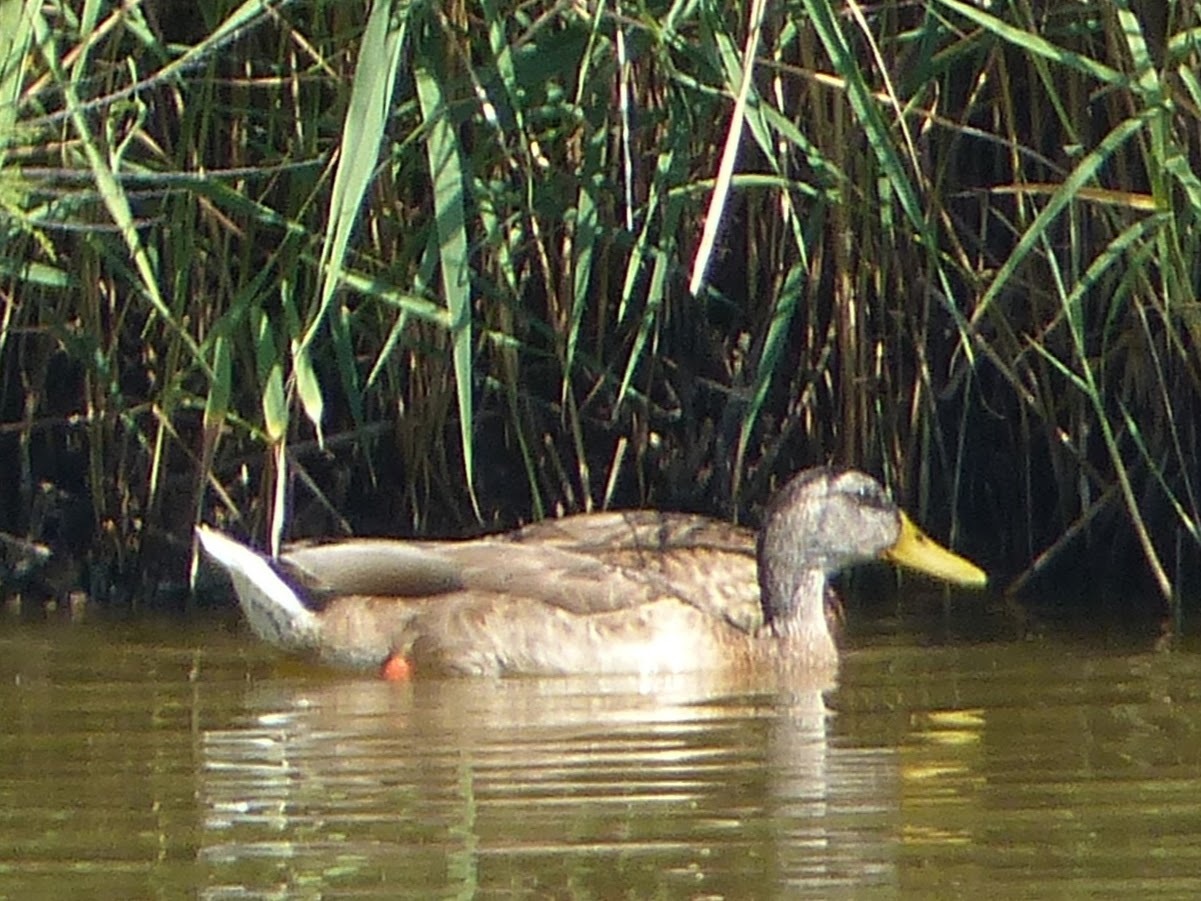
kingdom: Animalia
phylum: Chordata
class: Aves
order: Anseriformes
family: Anatidae
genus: Anas
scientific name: Anas platyrhynchos
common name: Mallard
